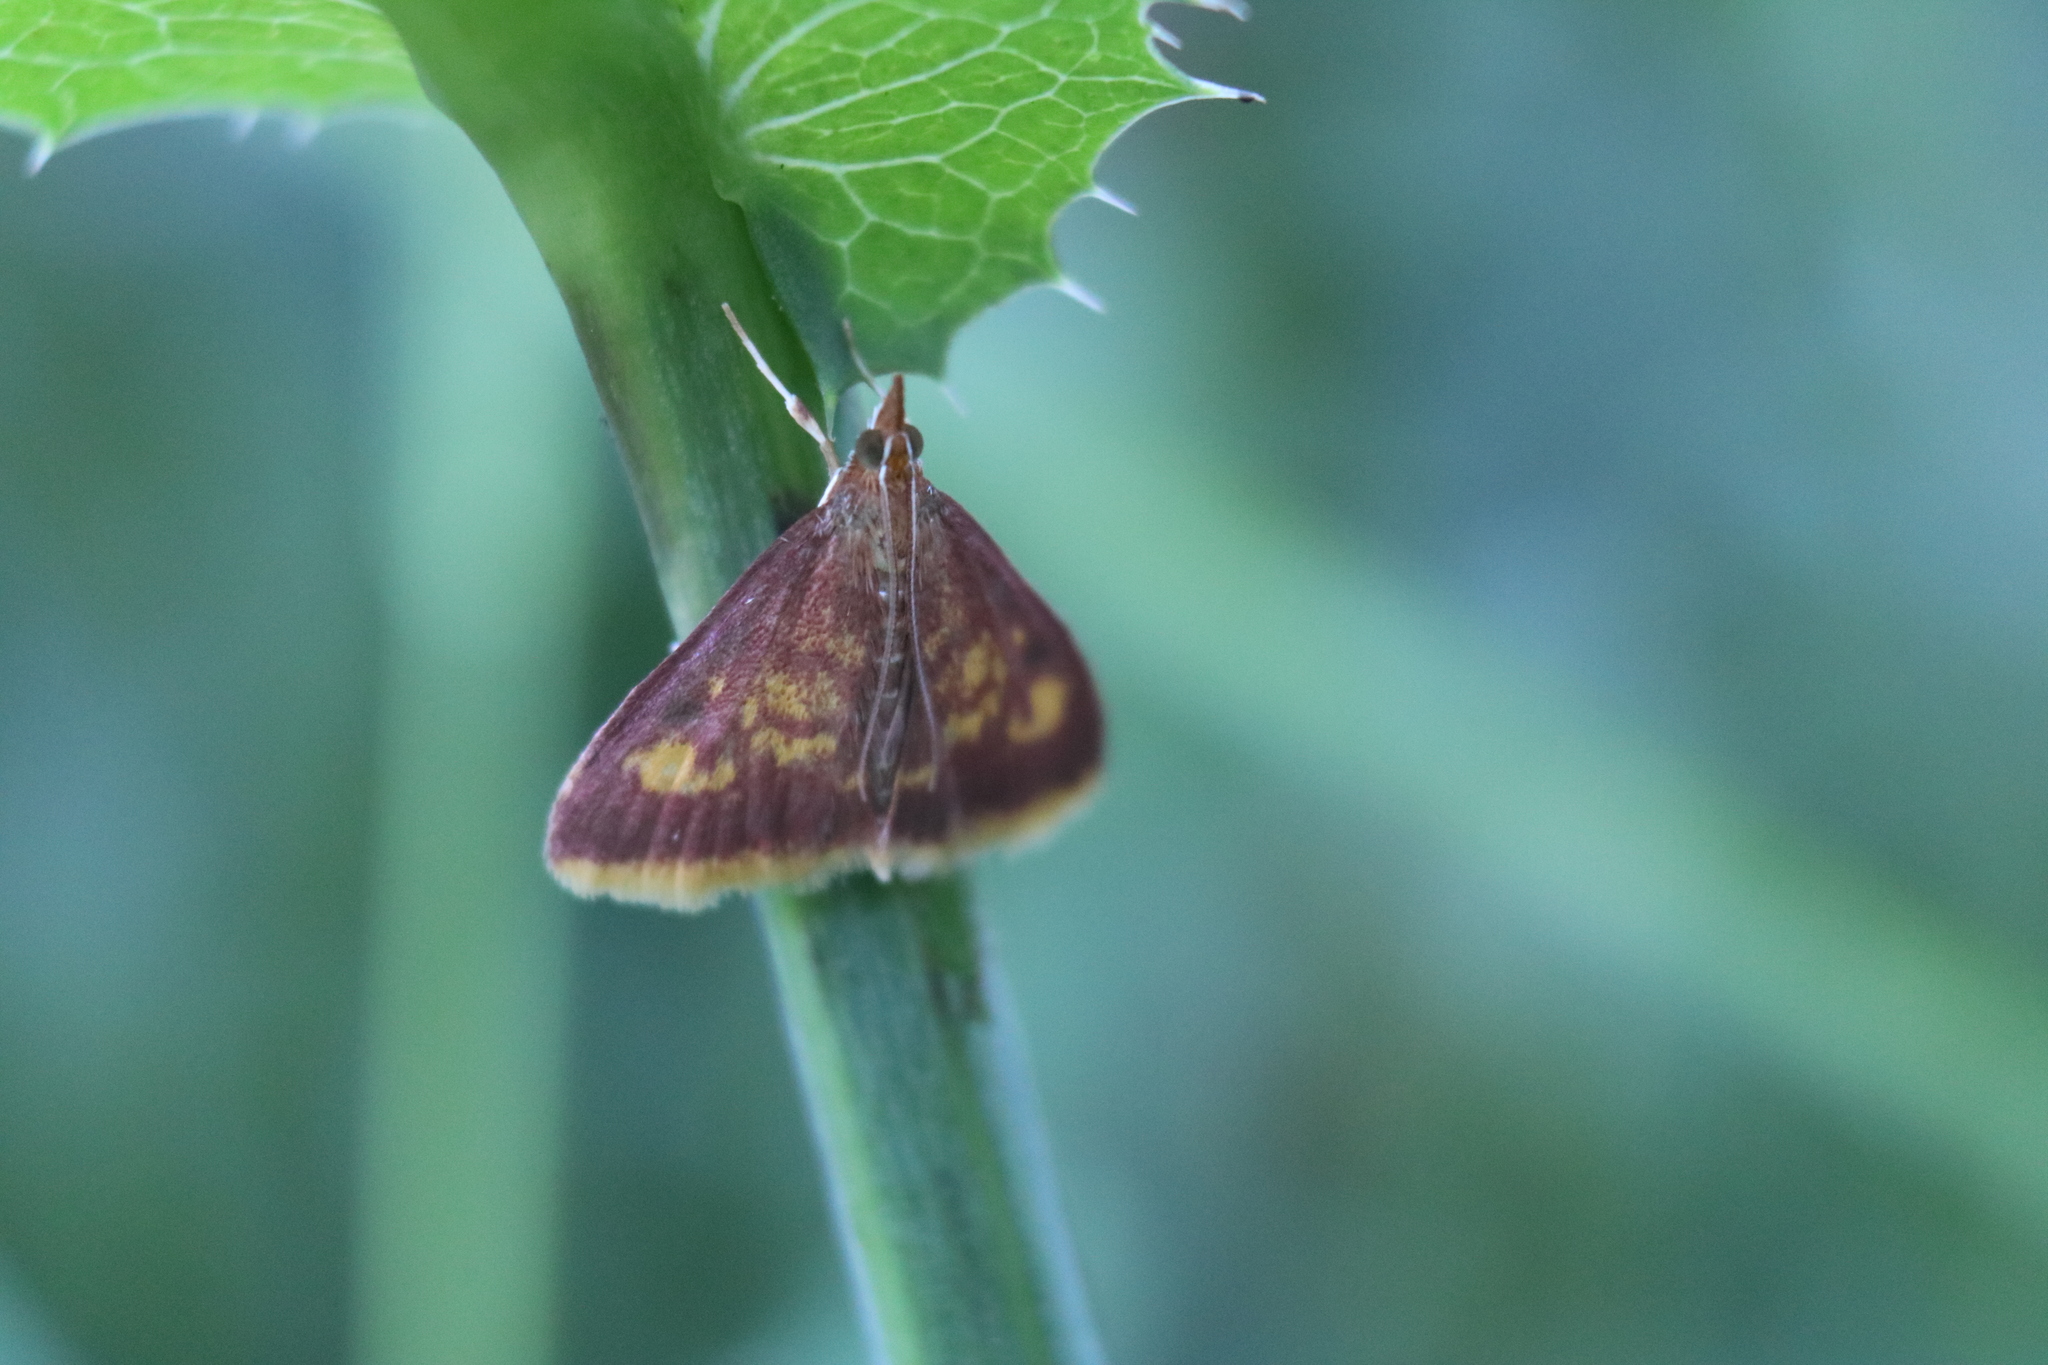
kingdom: Animalia
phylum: Arthropoda
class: Insecta
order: Lepidoptera
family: Crambidae
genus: Pyrausta
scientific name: Pyrausta acrionalis
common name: Mint-loving pyrausta moth
